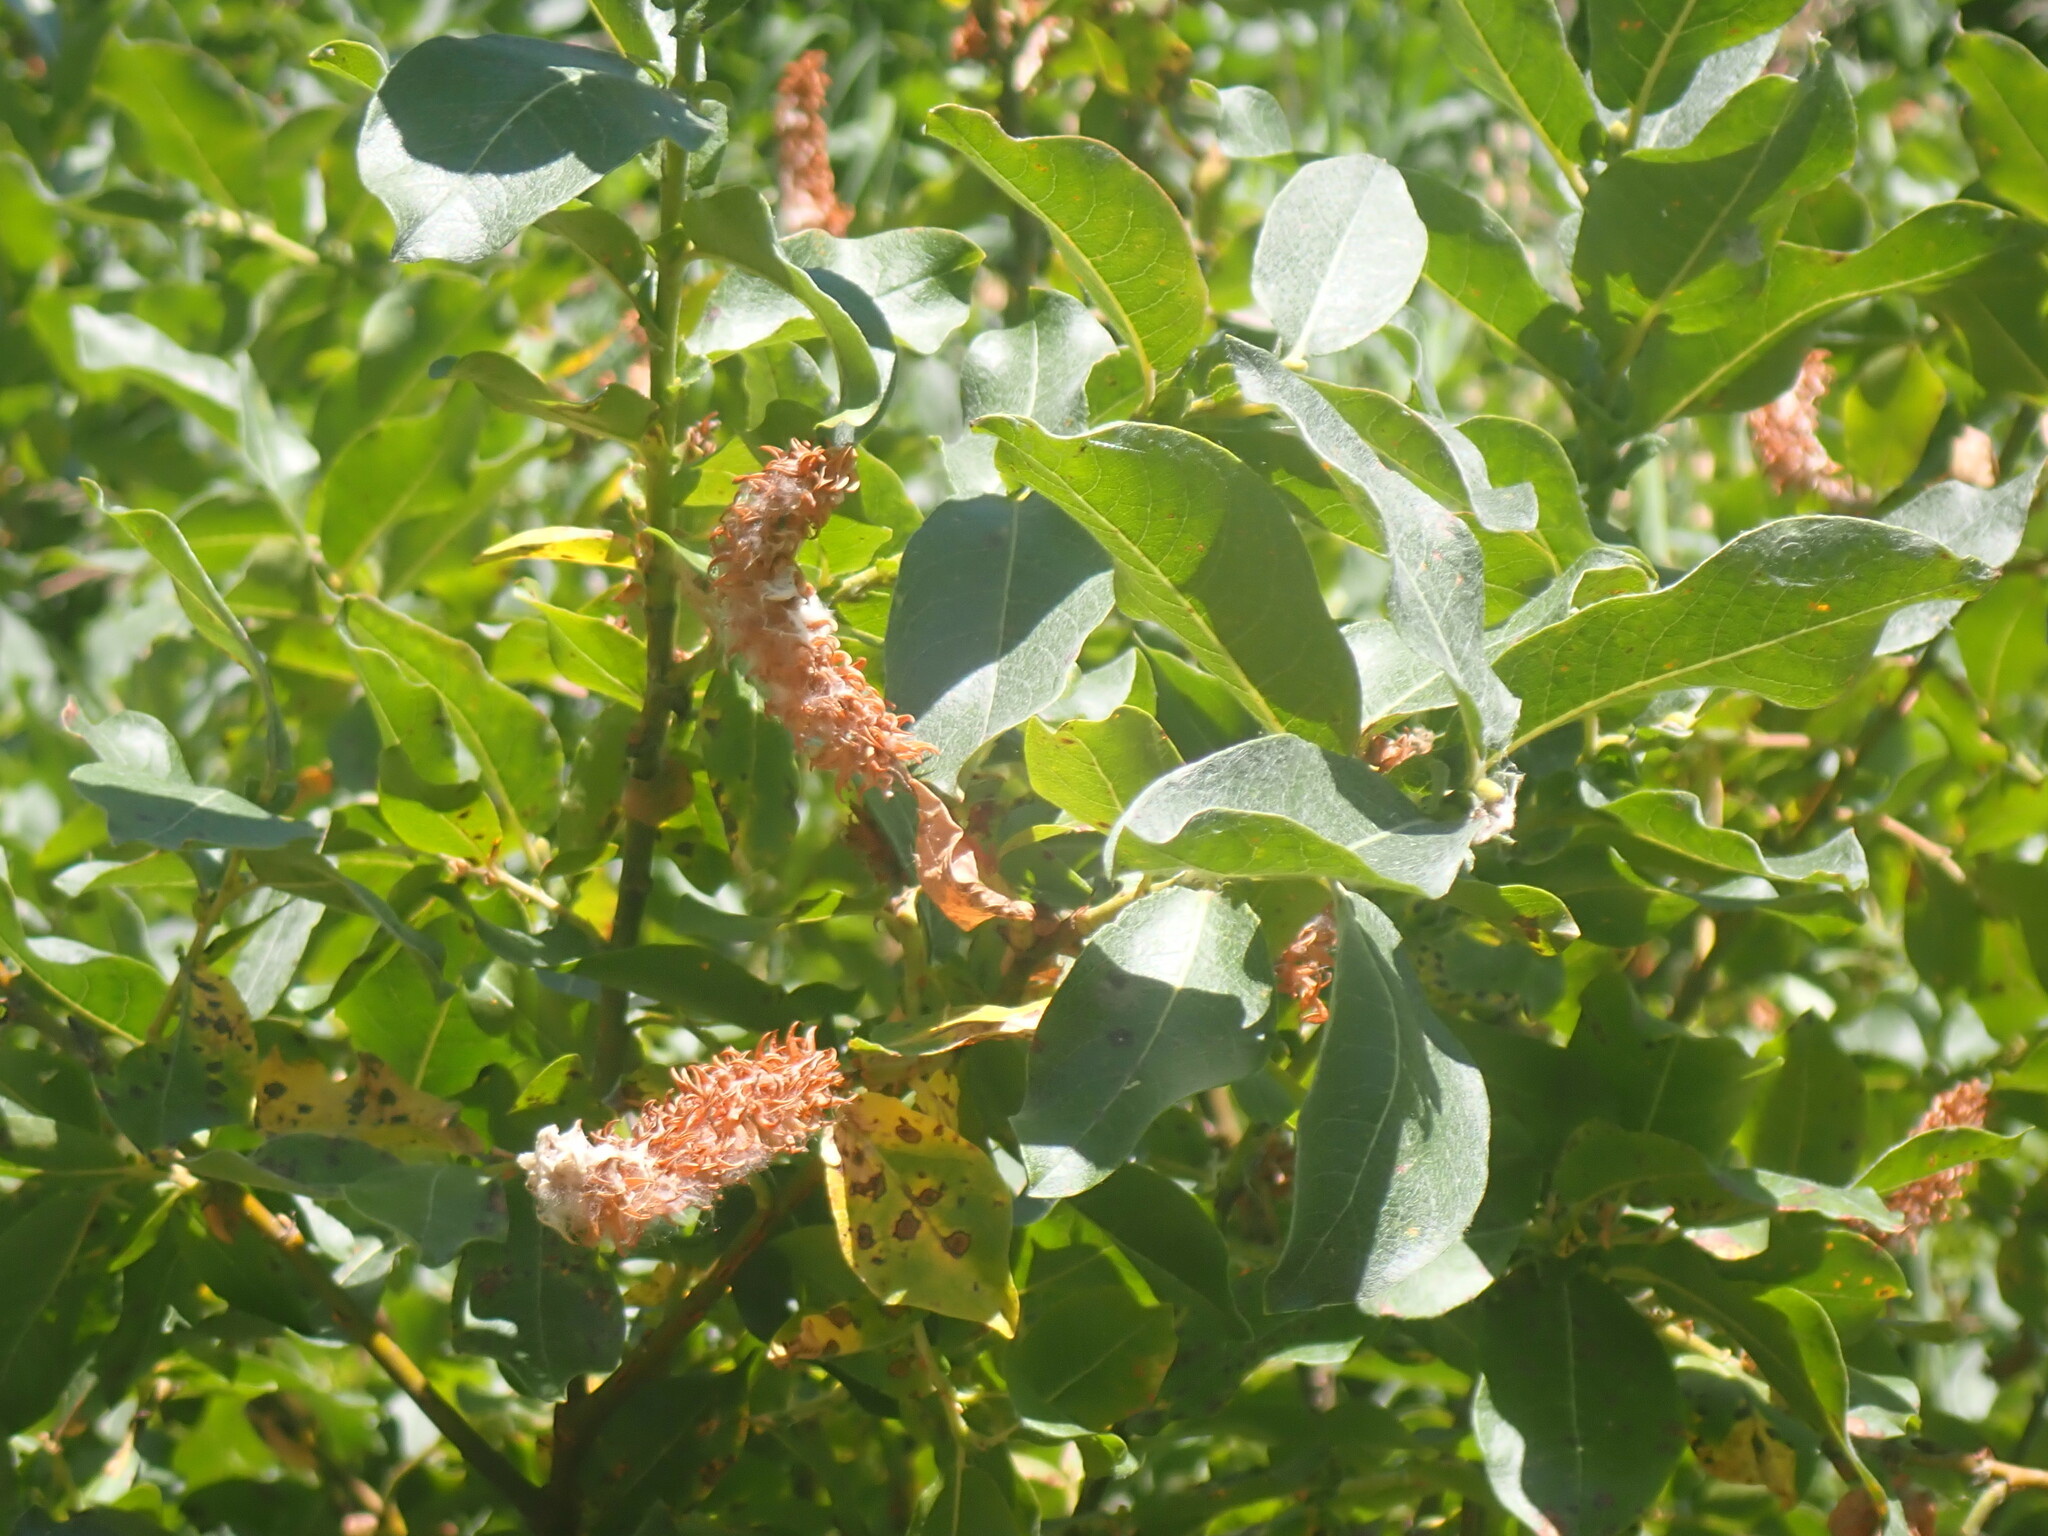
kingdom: Plantae
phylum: Tracheophyta
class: Magnoliopsida
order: Malpighiales
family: Salicaceae
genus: Salix
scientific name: Salix bebbiana
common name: Bebb's willow
